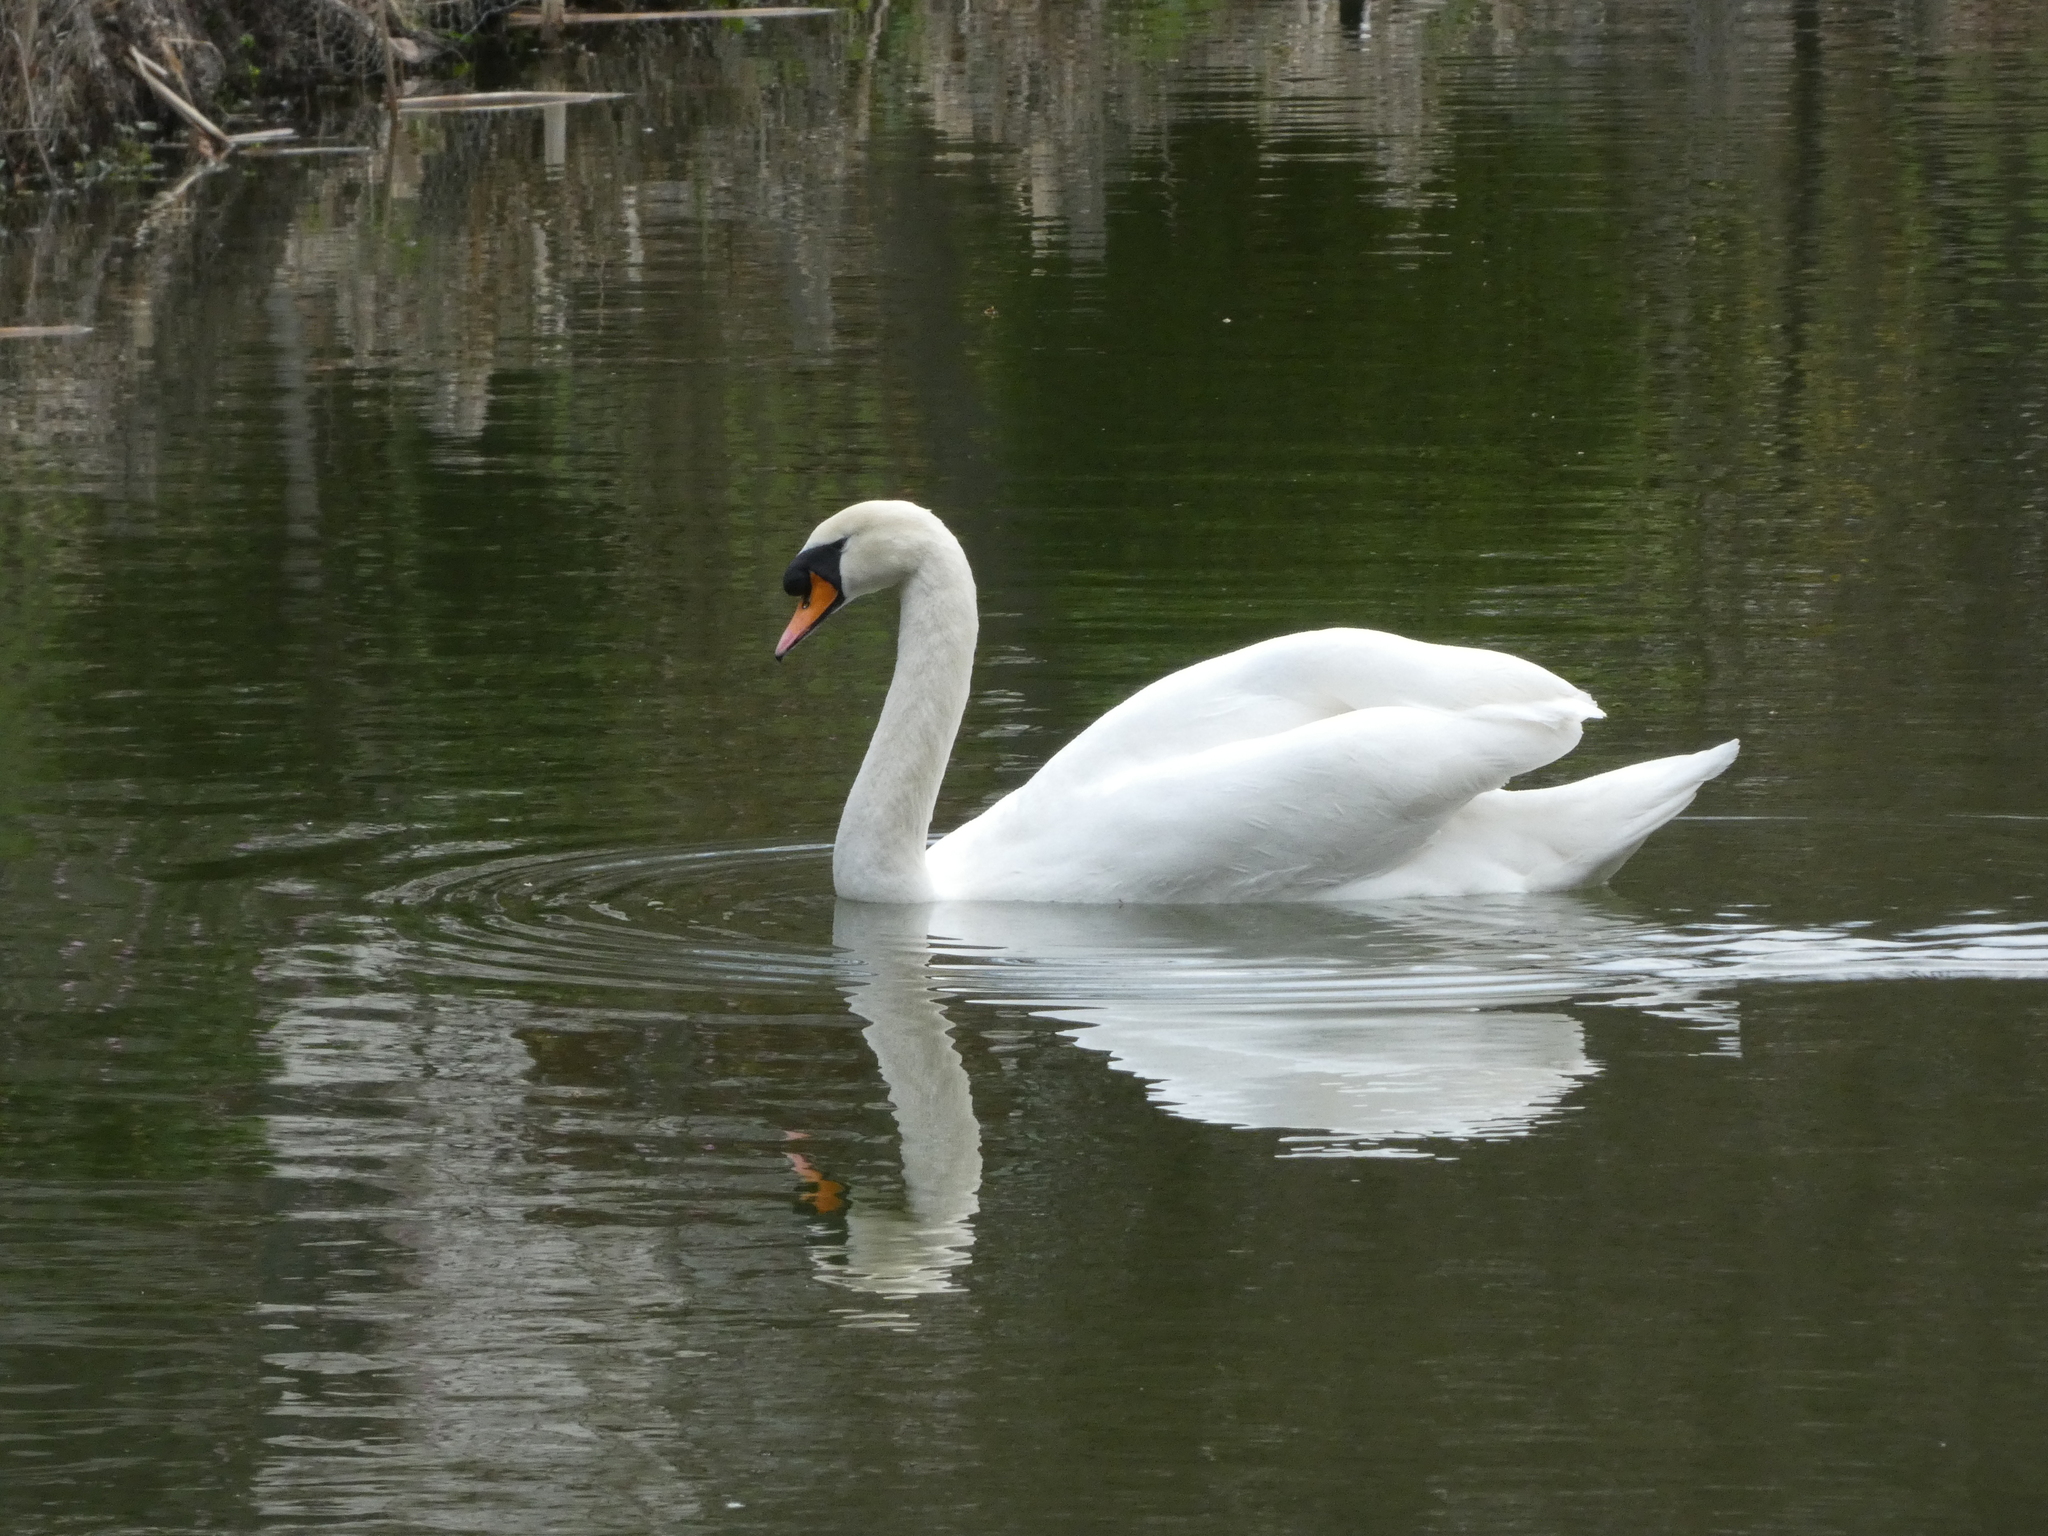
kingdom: Animalia
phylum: Chordata
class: Aves
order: Anseriformes
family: Anatidae
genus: Cygnus
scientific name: Cygnus olor
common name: Mute swan
